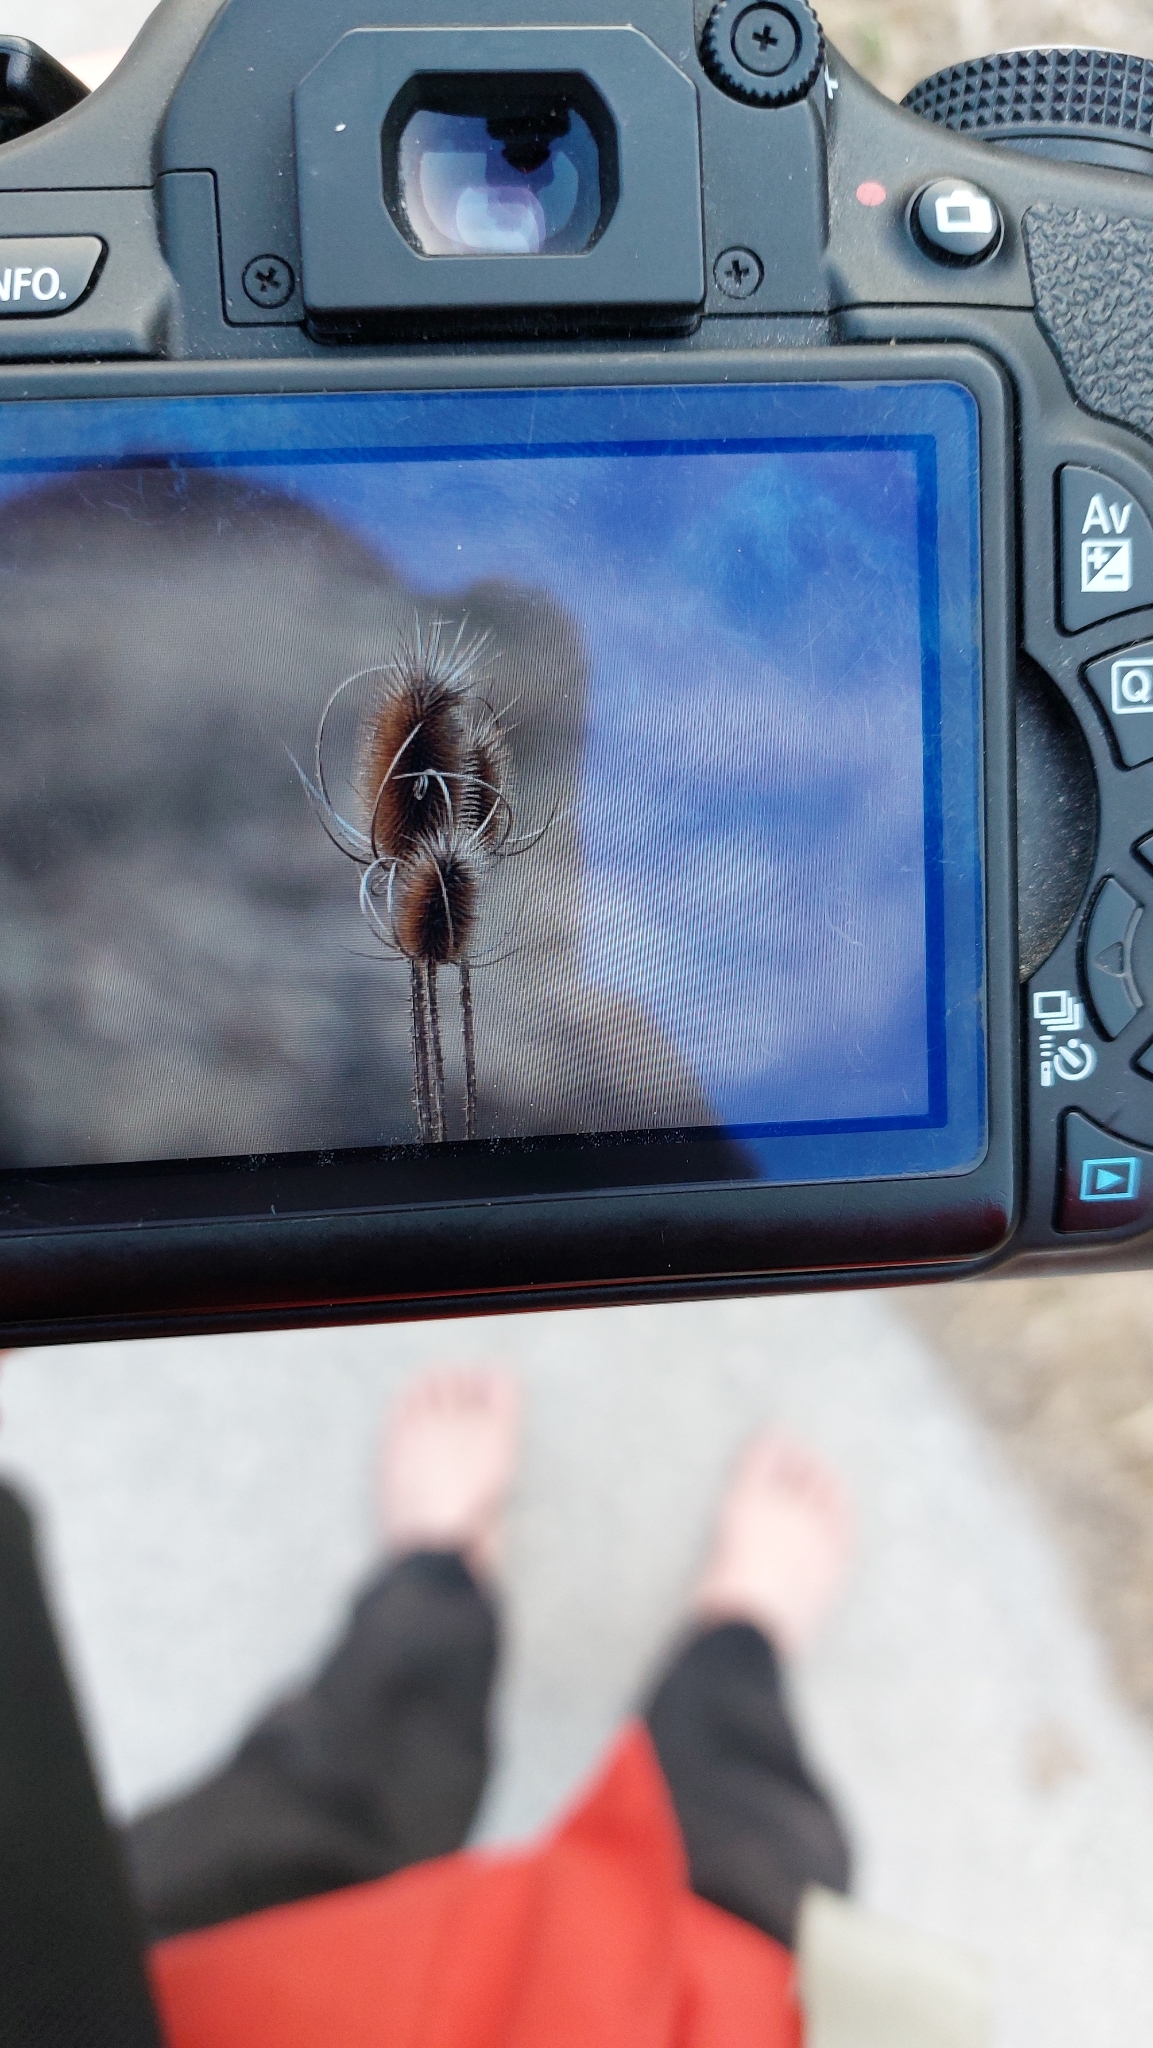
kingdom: Plantae
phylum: Tracheophyta
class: Magnoliopsida
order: Dipsacales
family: Caprifoliaceae
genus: Dipsacus
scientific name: Dipsacus fullonum
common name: Teasel
